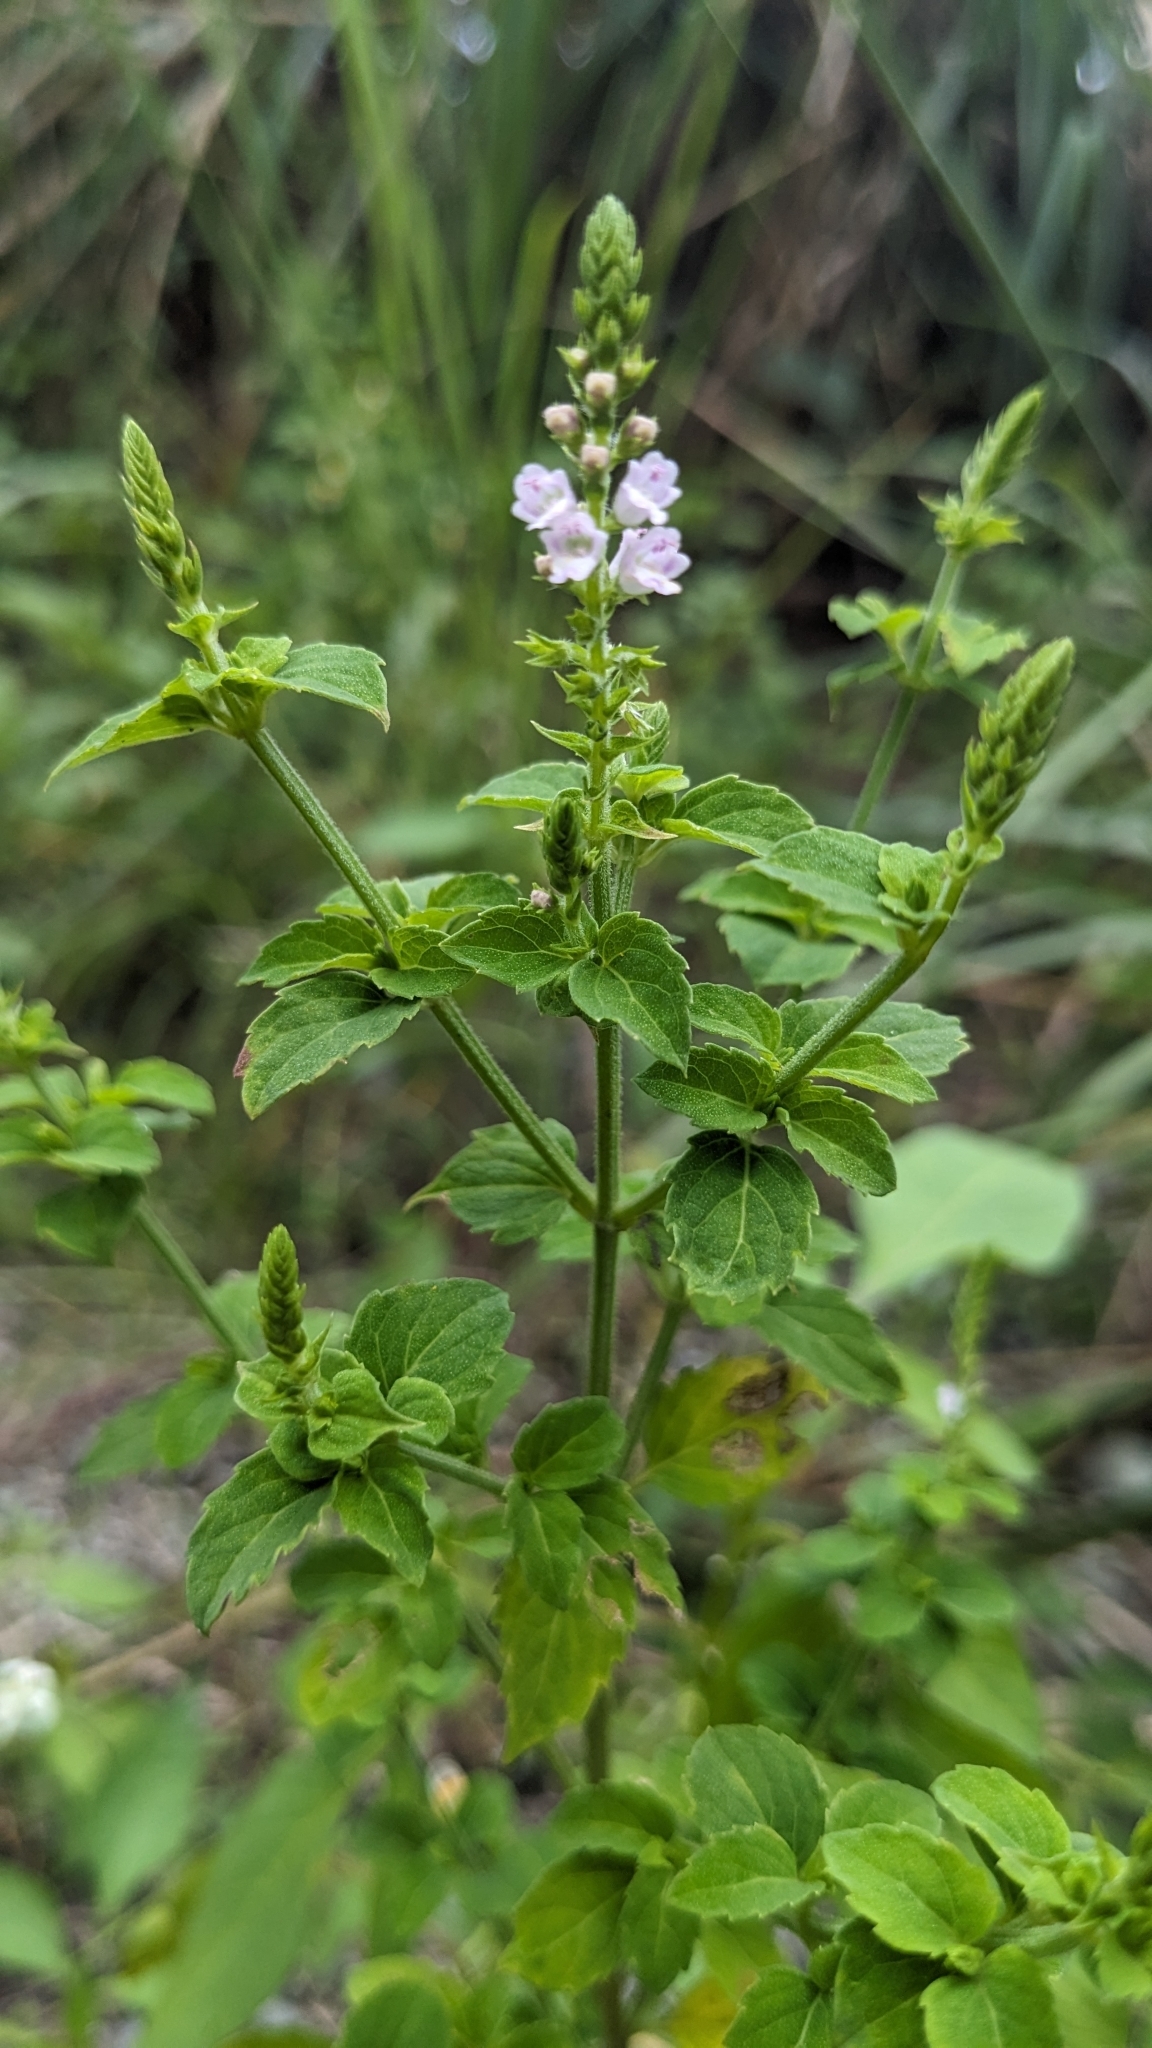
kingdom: Plantae
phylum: Tracheophyta
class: Magnoliopsida
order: Lamiales
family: Lamiaceae
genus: Mosla
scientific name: Mosla scabra
